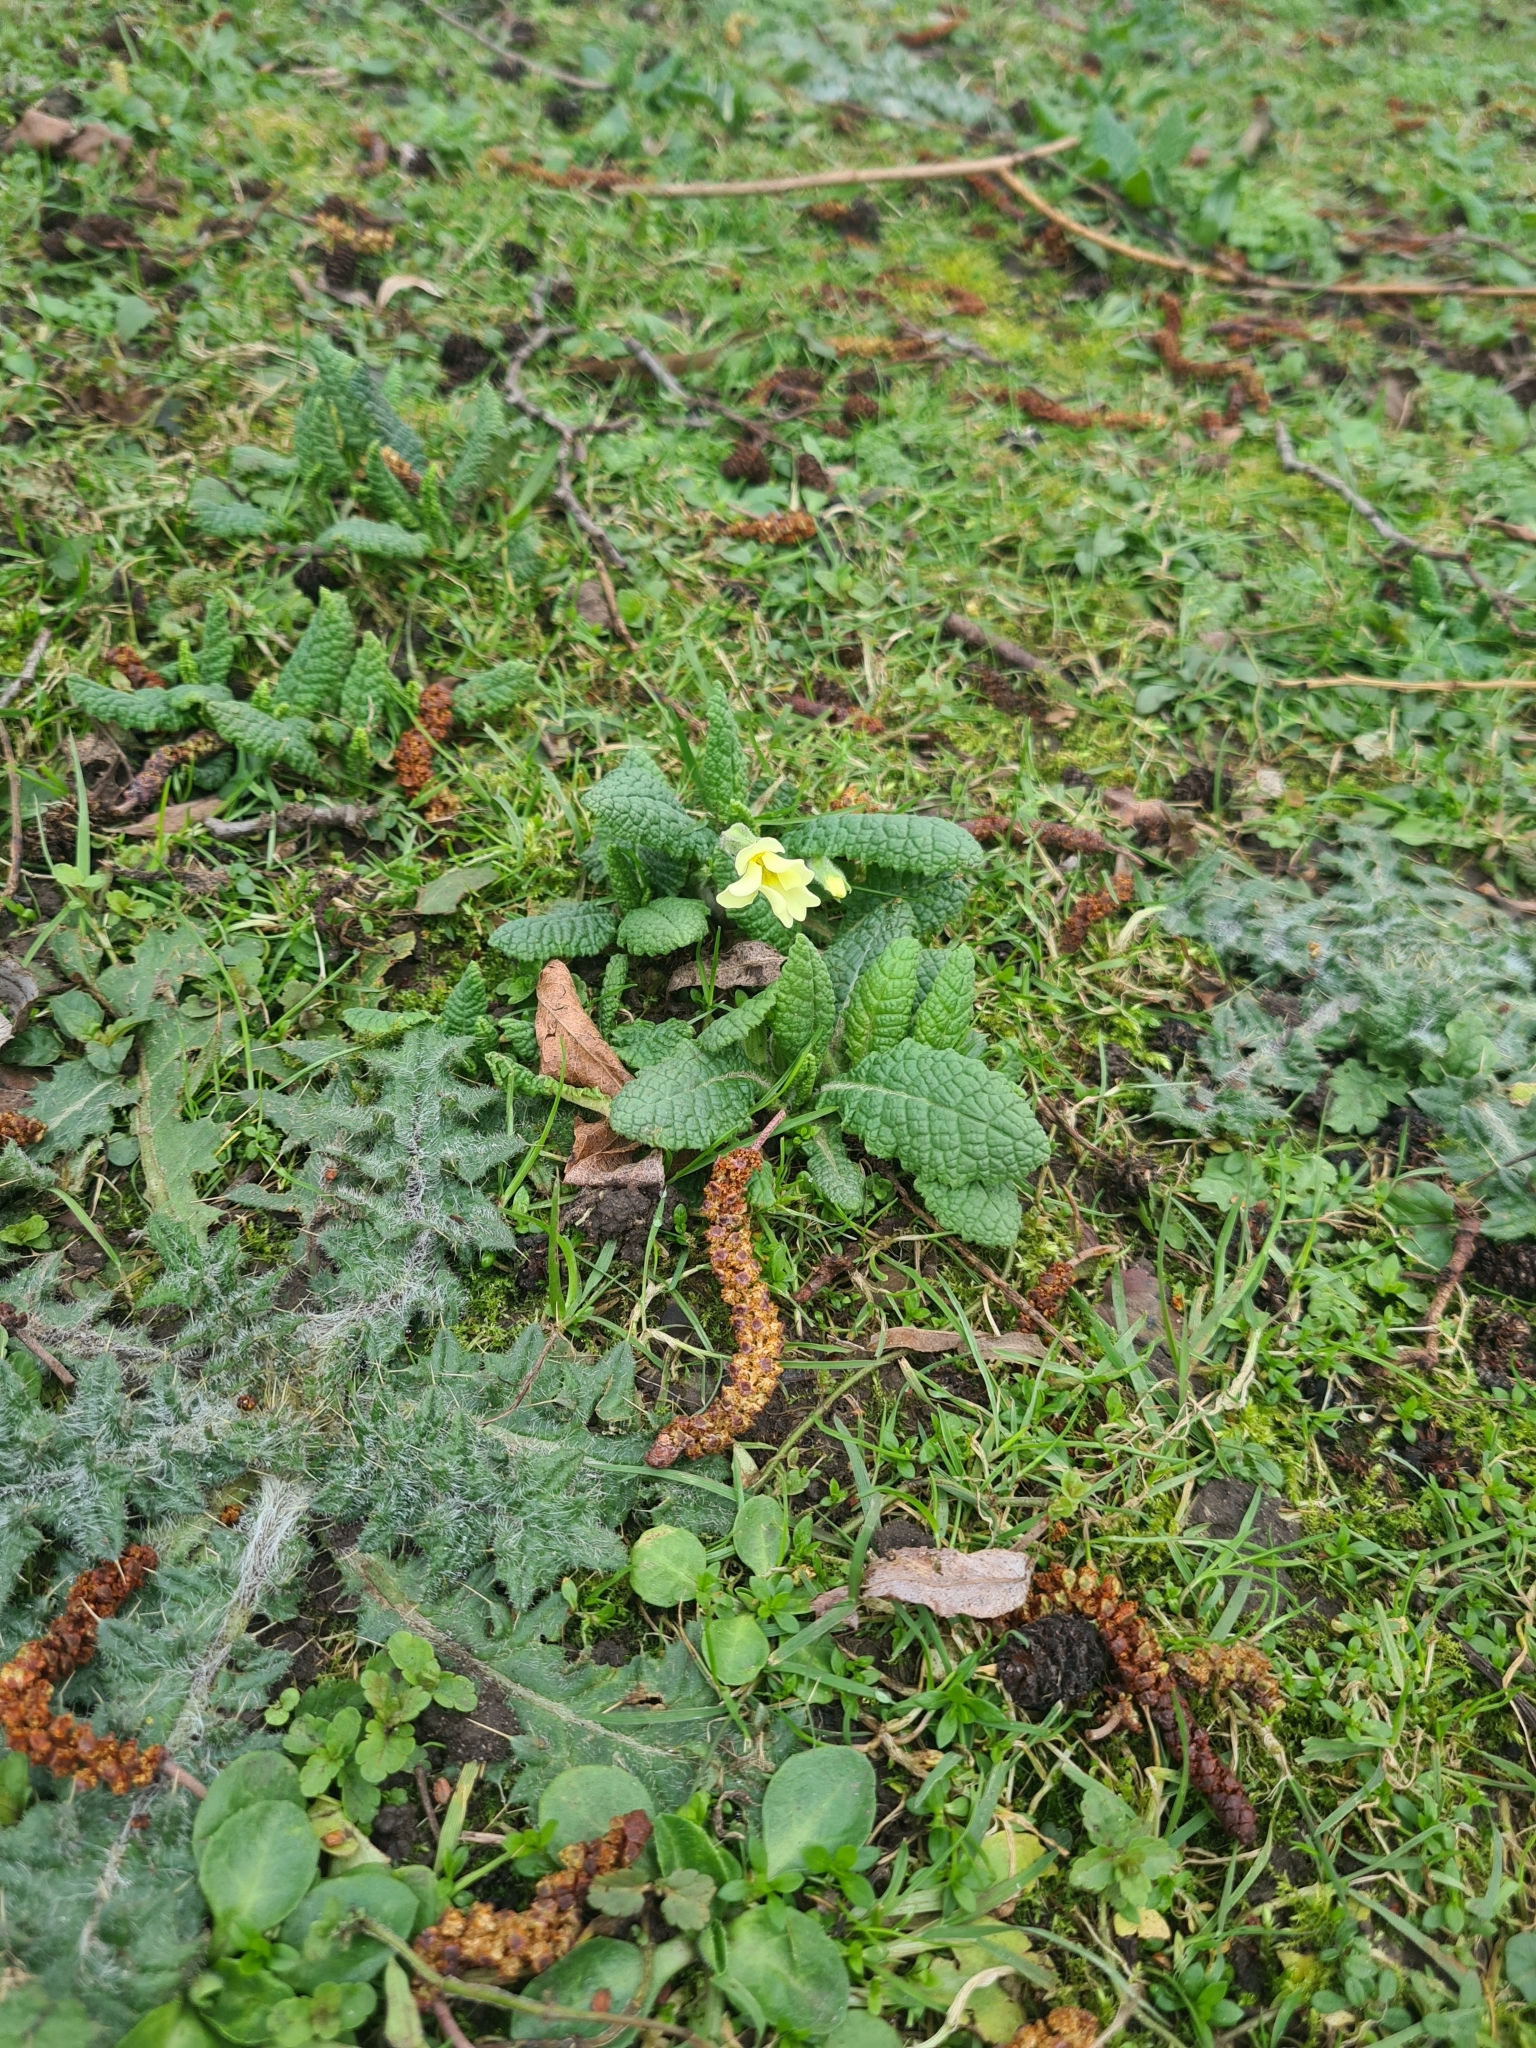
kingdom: Plantae
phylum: Tracheophyta
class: Magnoliopsida
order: Ericales
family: Primulaceae
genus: Primula
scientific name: Primula vulgaris
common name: Primrose
